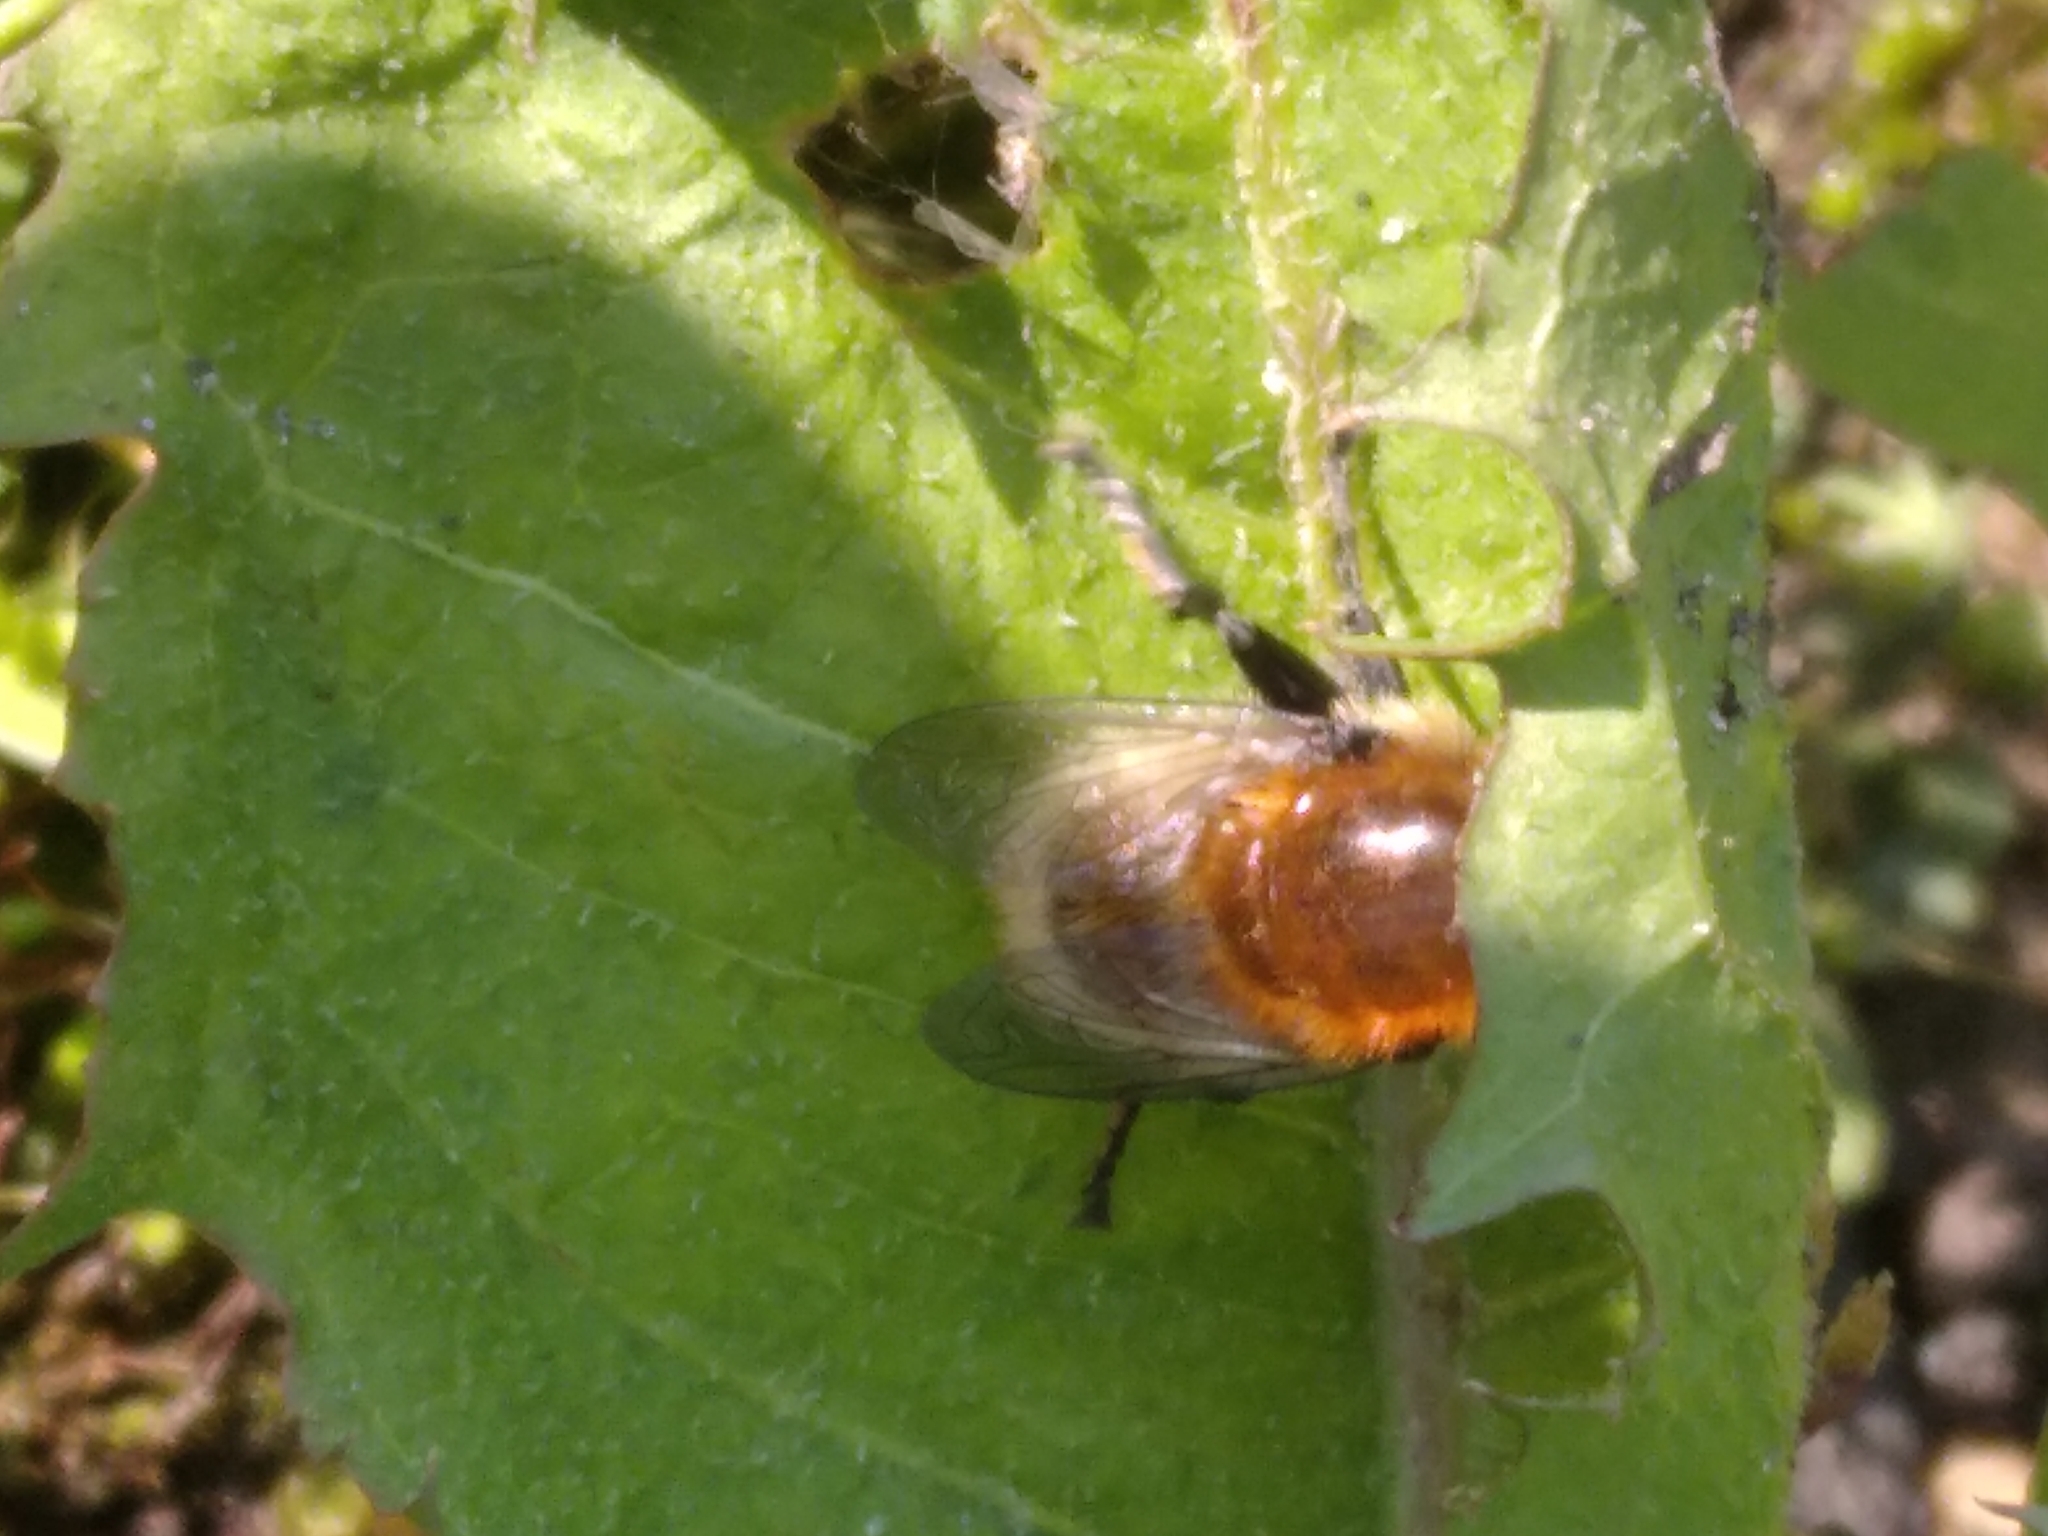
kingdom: Animalia
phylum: Arthropoda
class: Insecta
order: Diptera
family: Syrphidae
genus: Merodon
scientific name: Merodon equestris
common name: Greater bulb-fly
